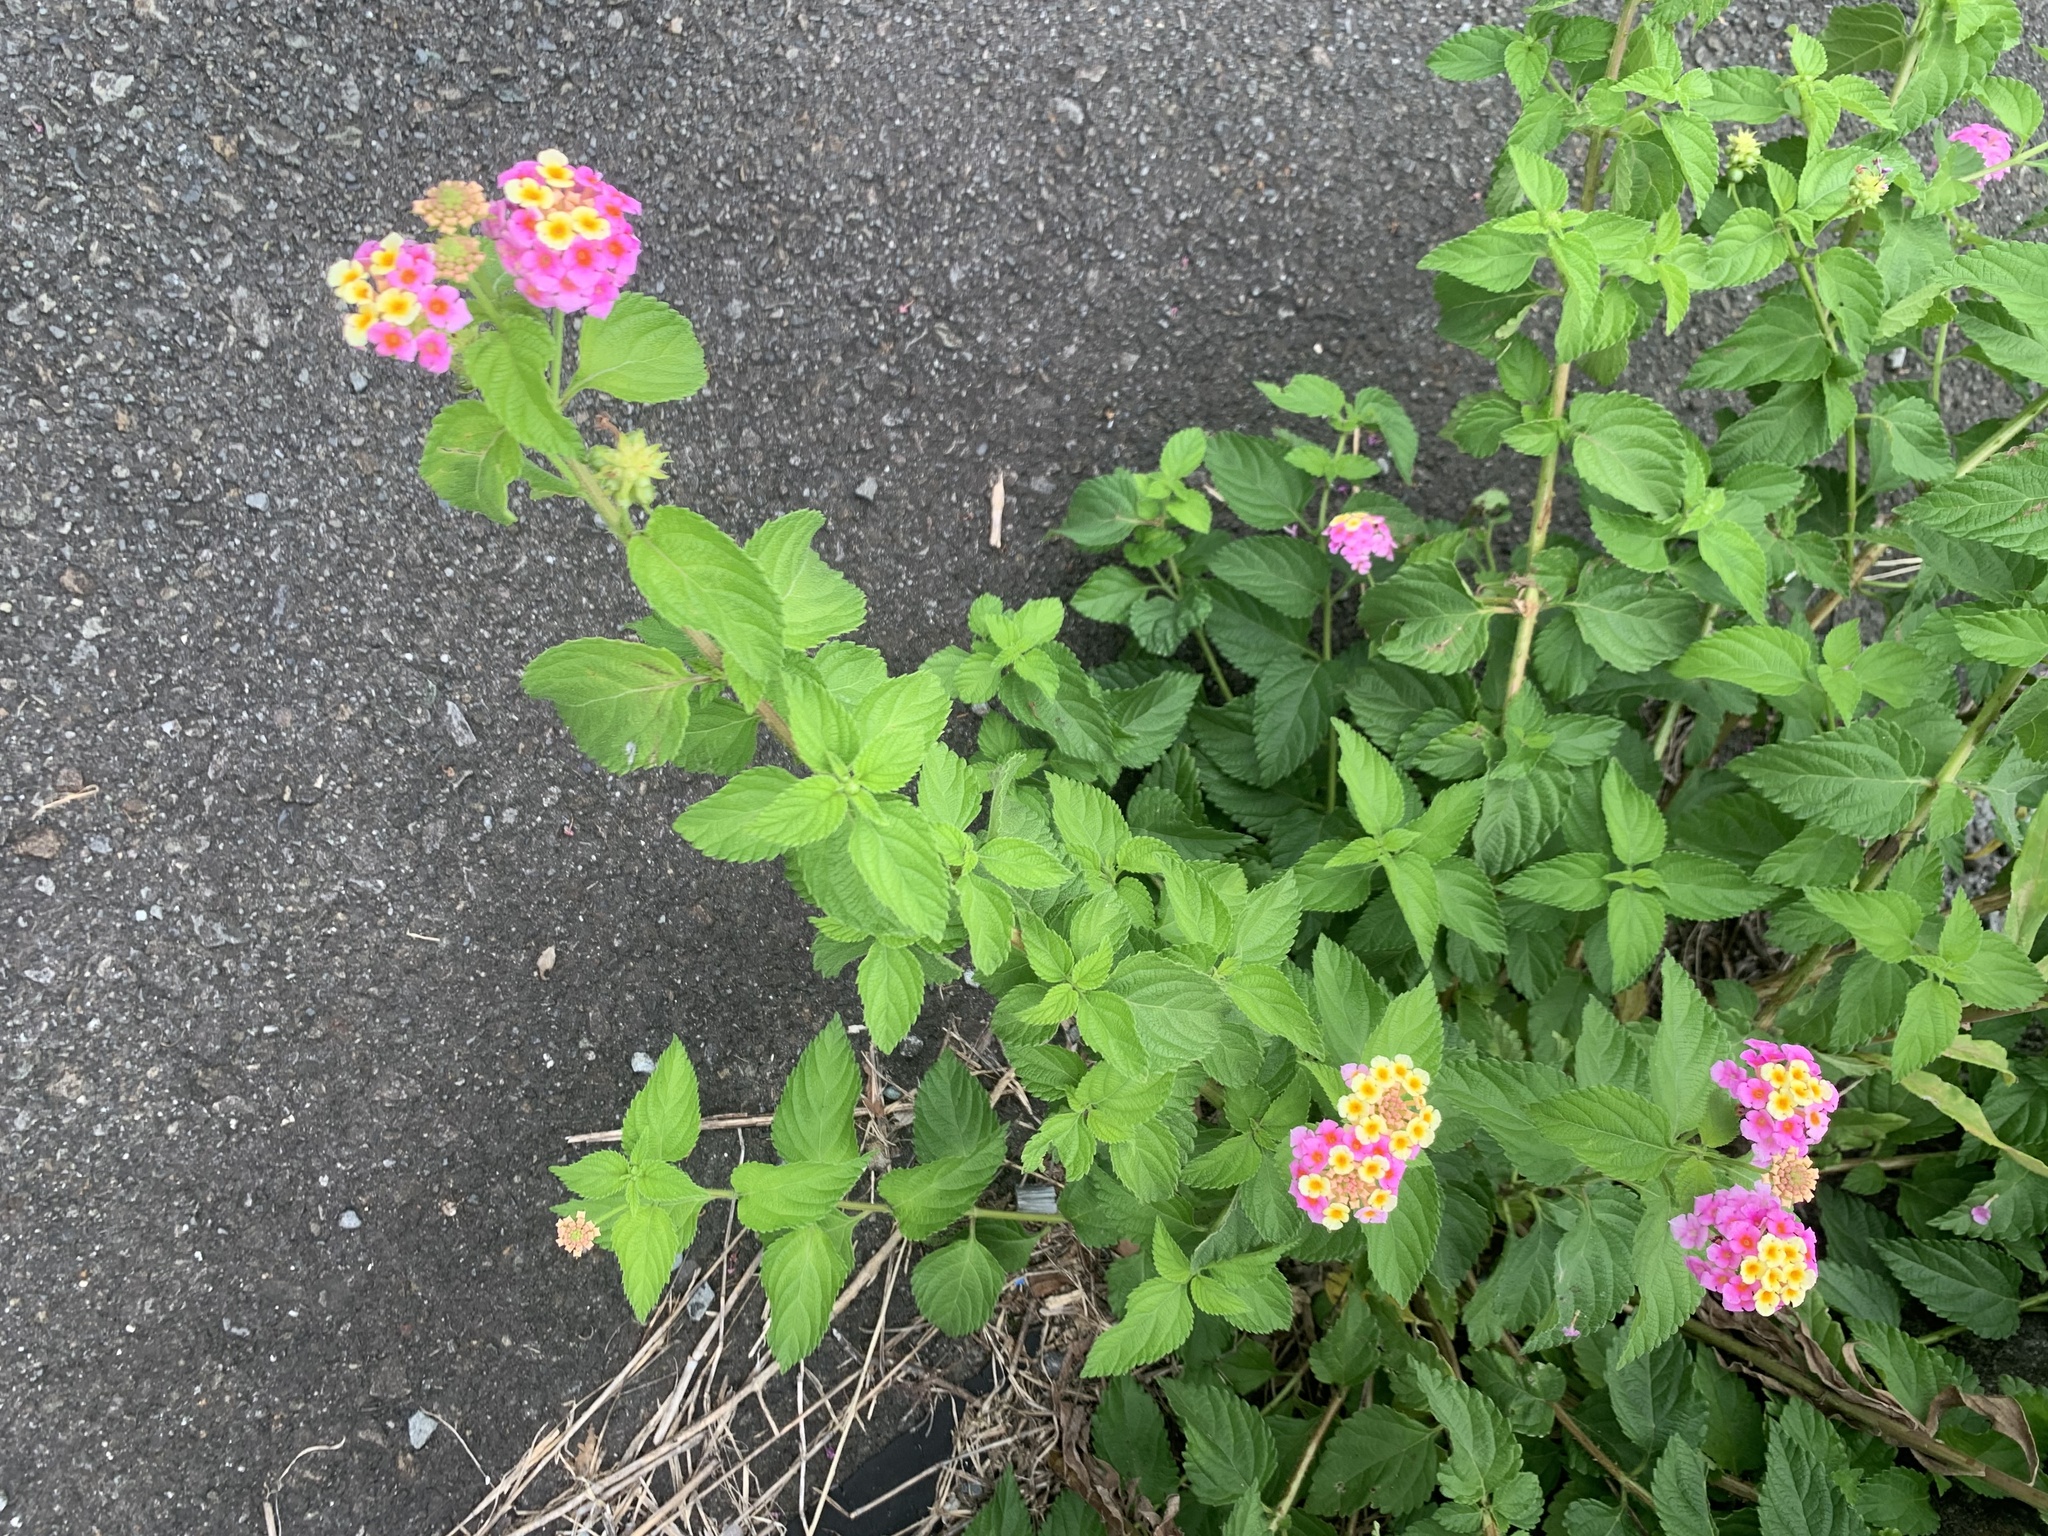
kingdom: Plantae
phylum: Tracheophyta
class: Magnoliopsida
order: Lamiales
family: Verbenaceae
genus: Lantana
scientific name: Lantana camara
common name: Lantana
